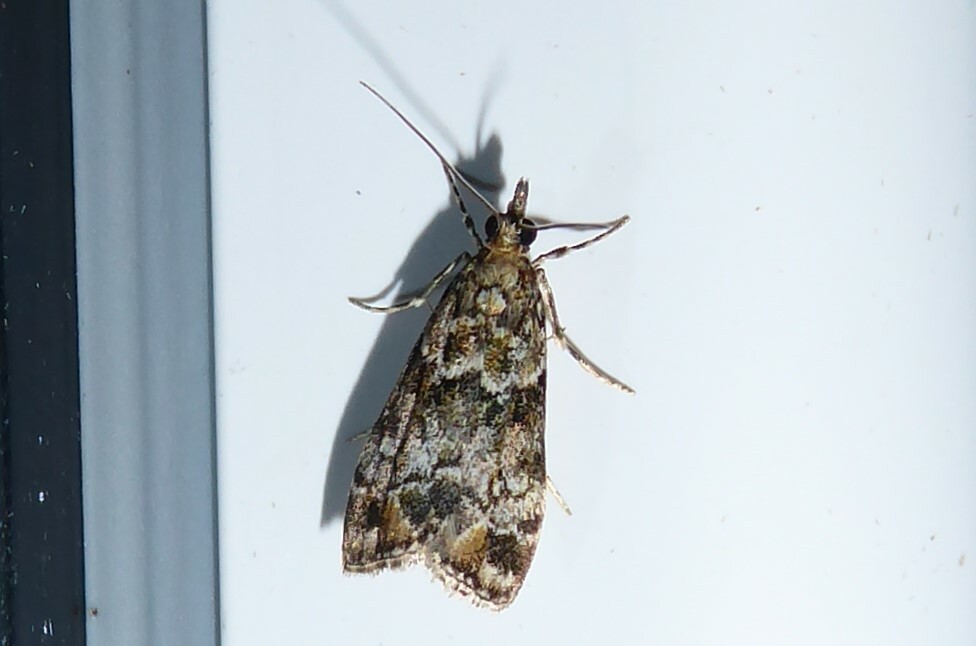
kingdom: Animalia
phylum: Arthropoda
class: Insecta
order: Lepidoptera
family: Crambidae
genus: Eudonia
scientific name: Eudonia minualis
